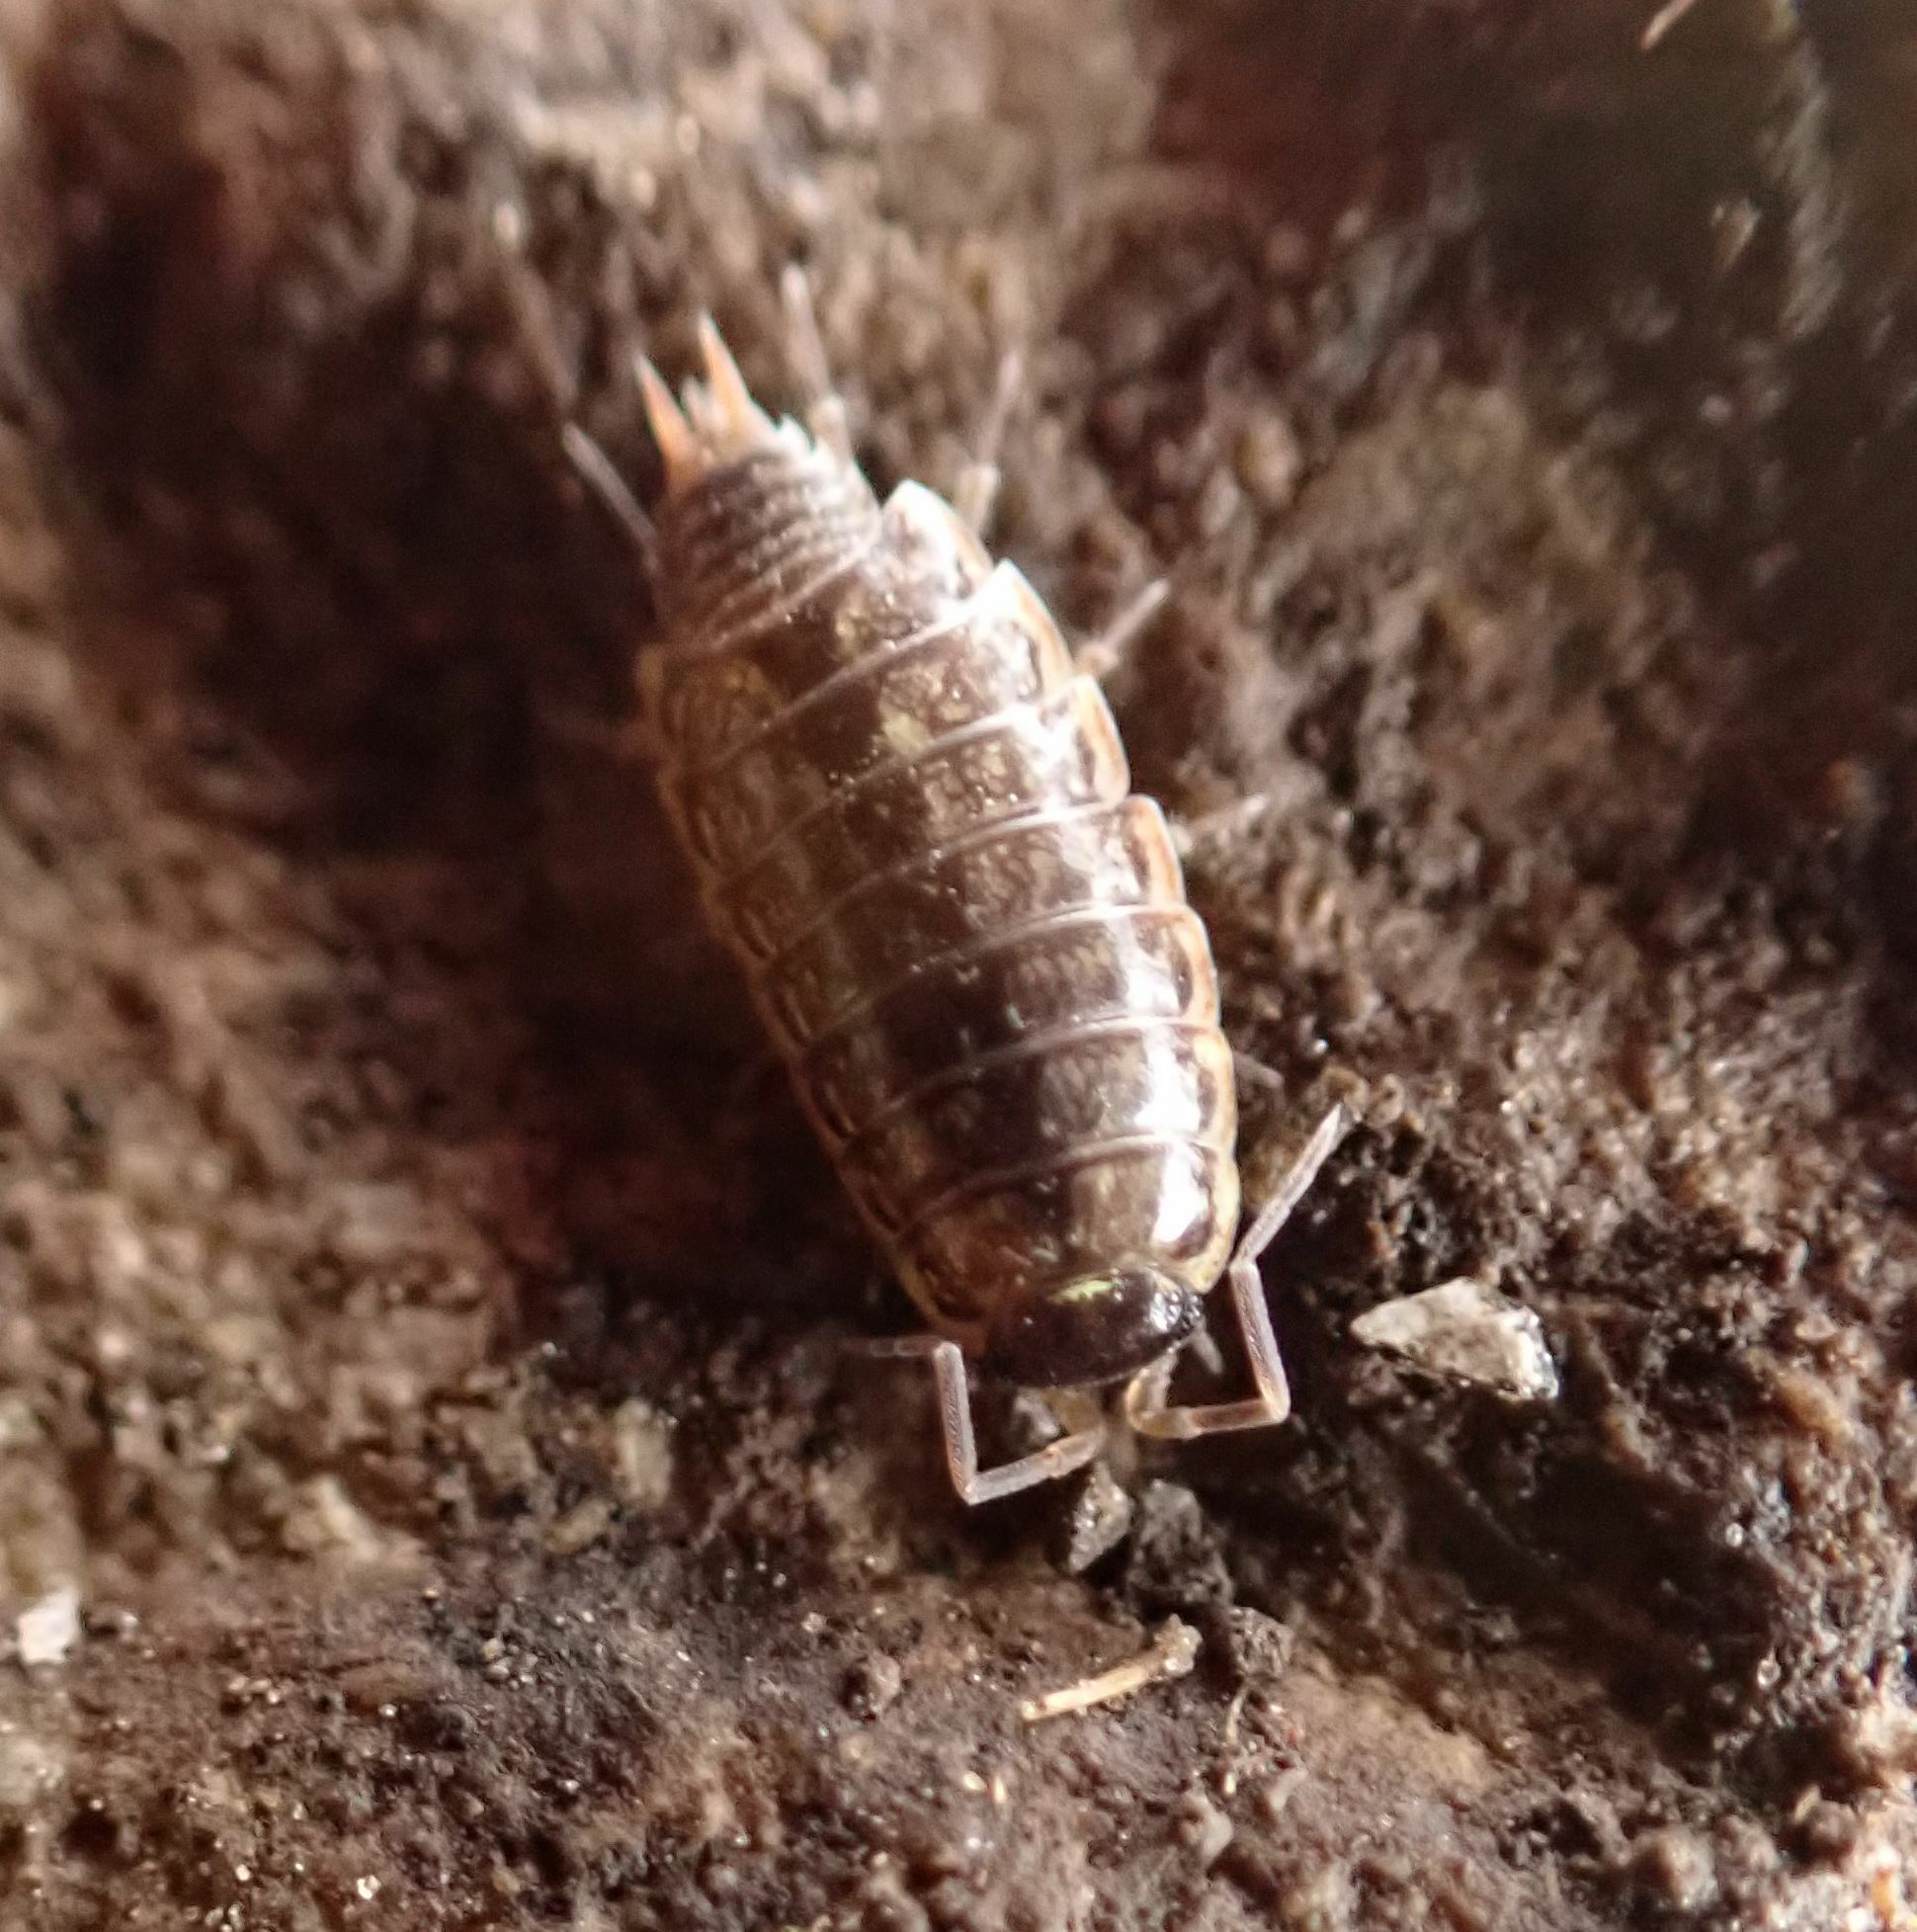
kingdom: Animalia
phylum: Arthropoda
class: Malacostraca
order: Isopoda
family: Philosciidae
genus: Philoscia
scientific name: Philoscia muscorum
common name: Common striped woodlouse
